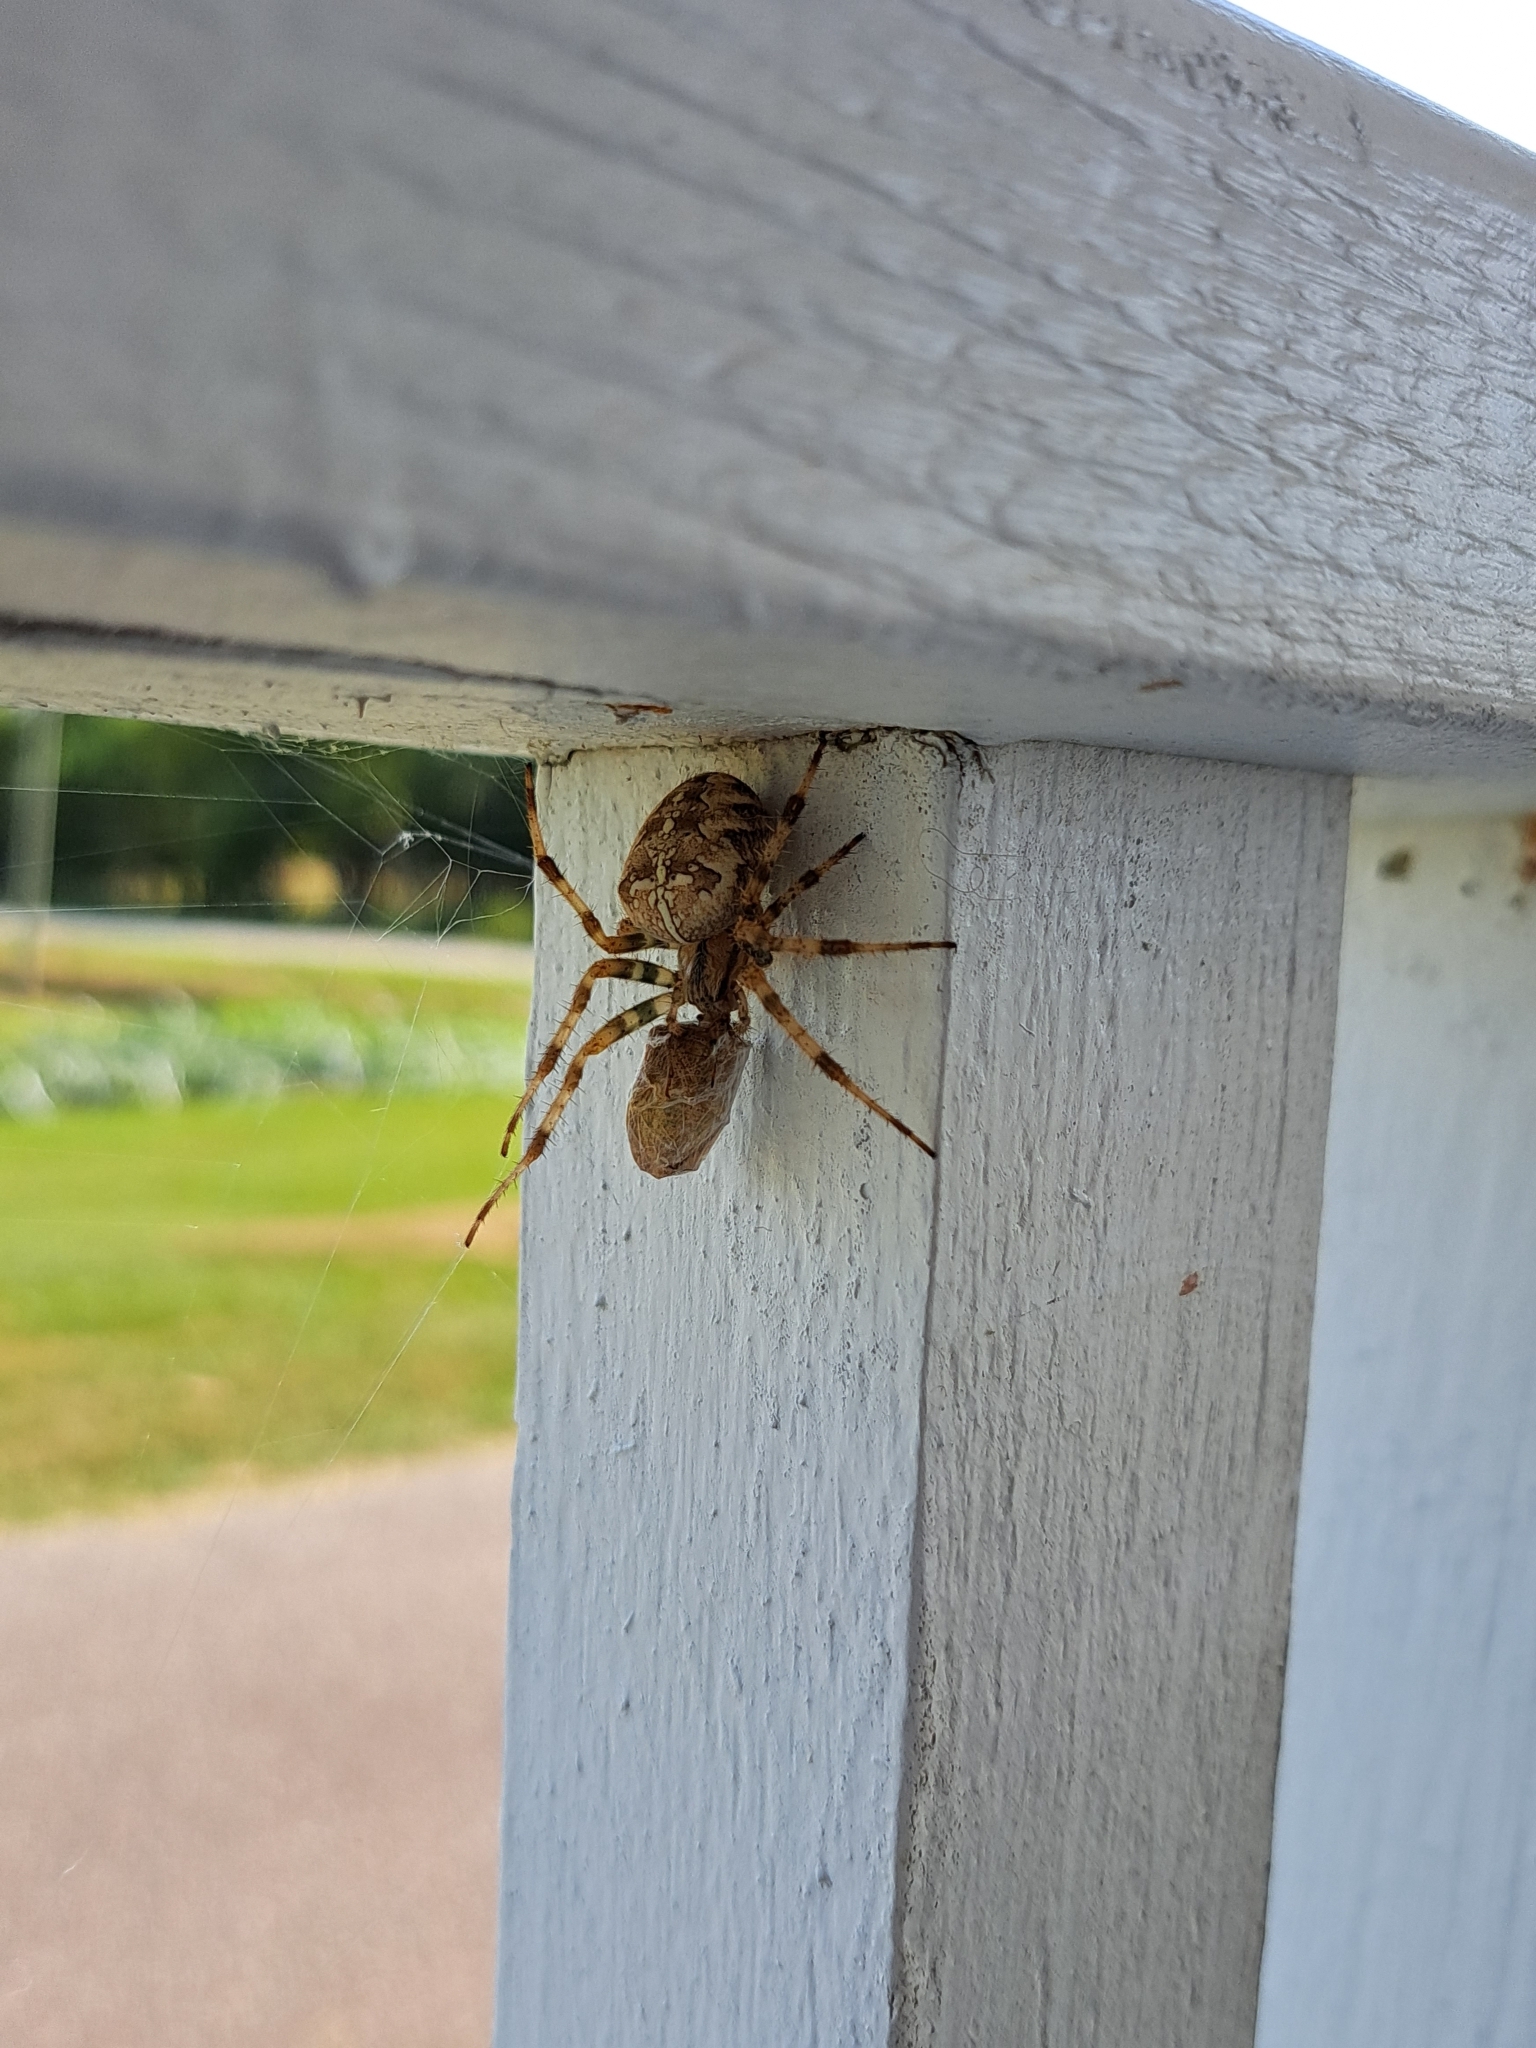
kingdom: Animalia
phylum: Arthropoda
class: Arachnida
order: Araneae
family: Araneidae
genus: Araneus
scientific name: Araneus diadematus
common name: Cross orbweaver
